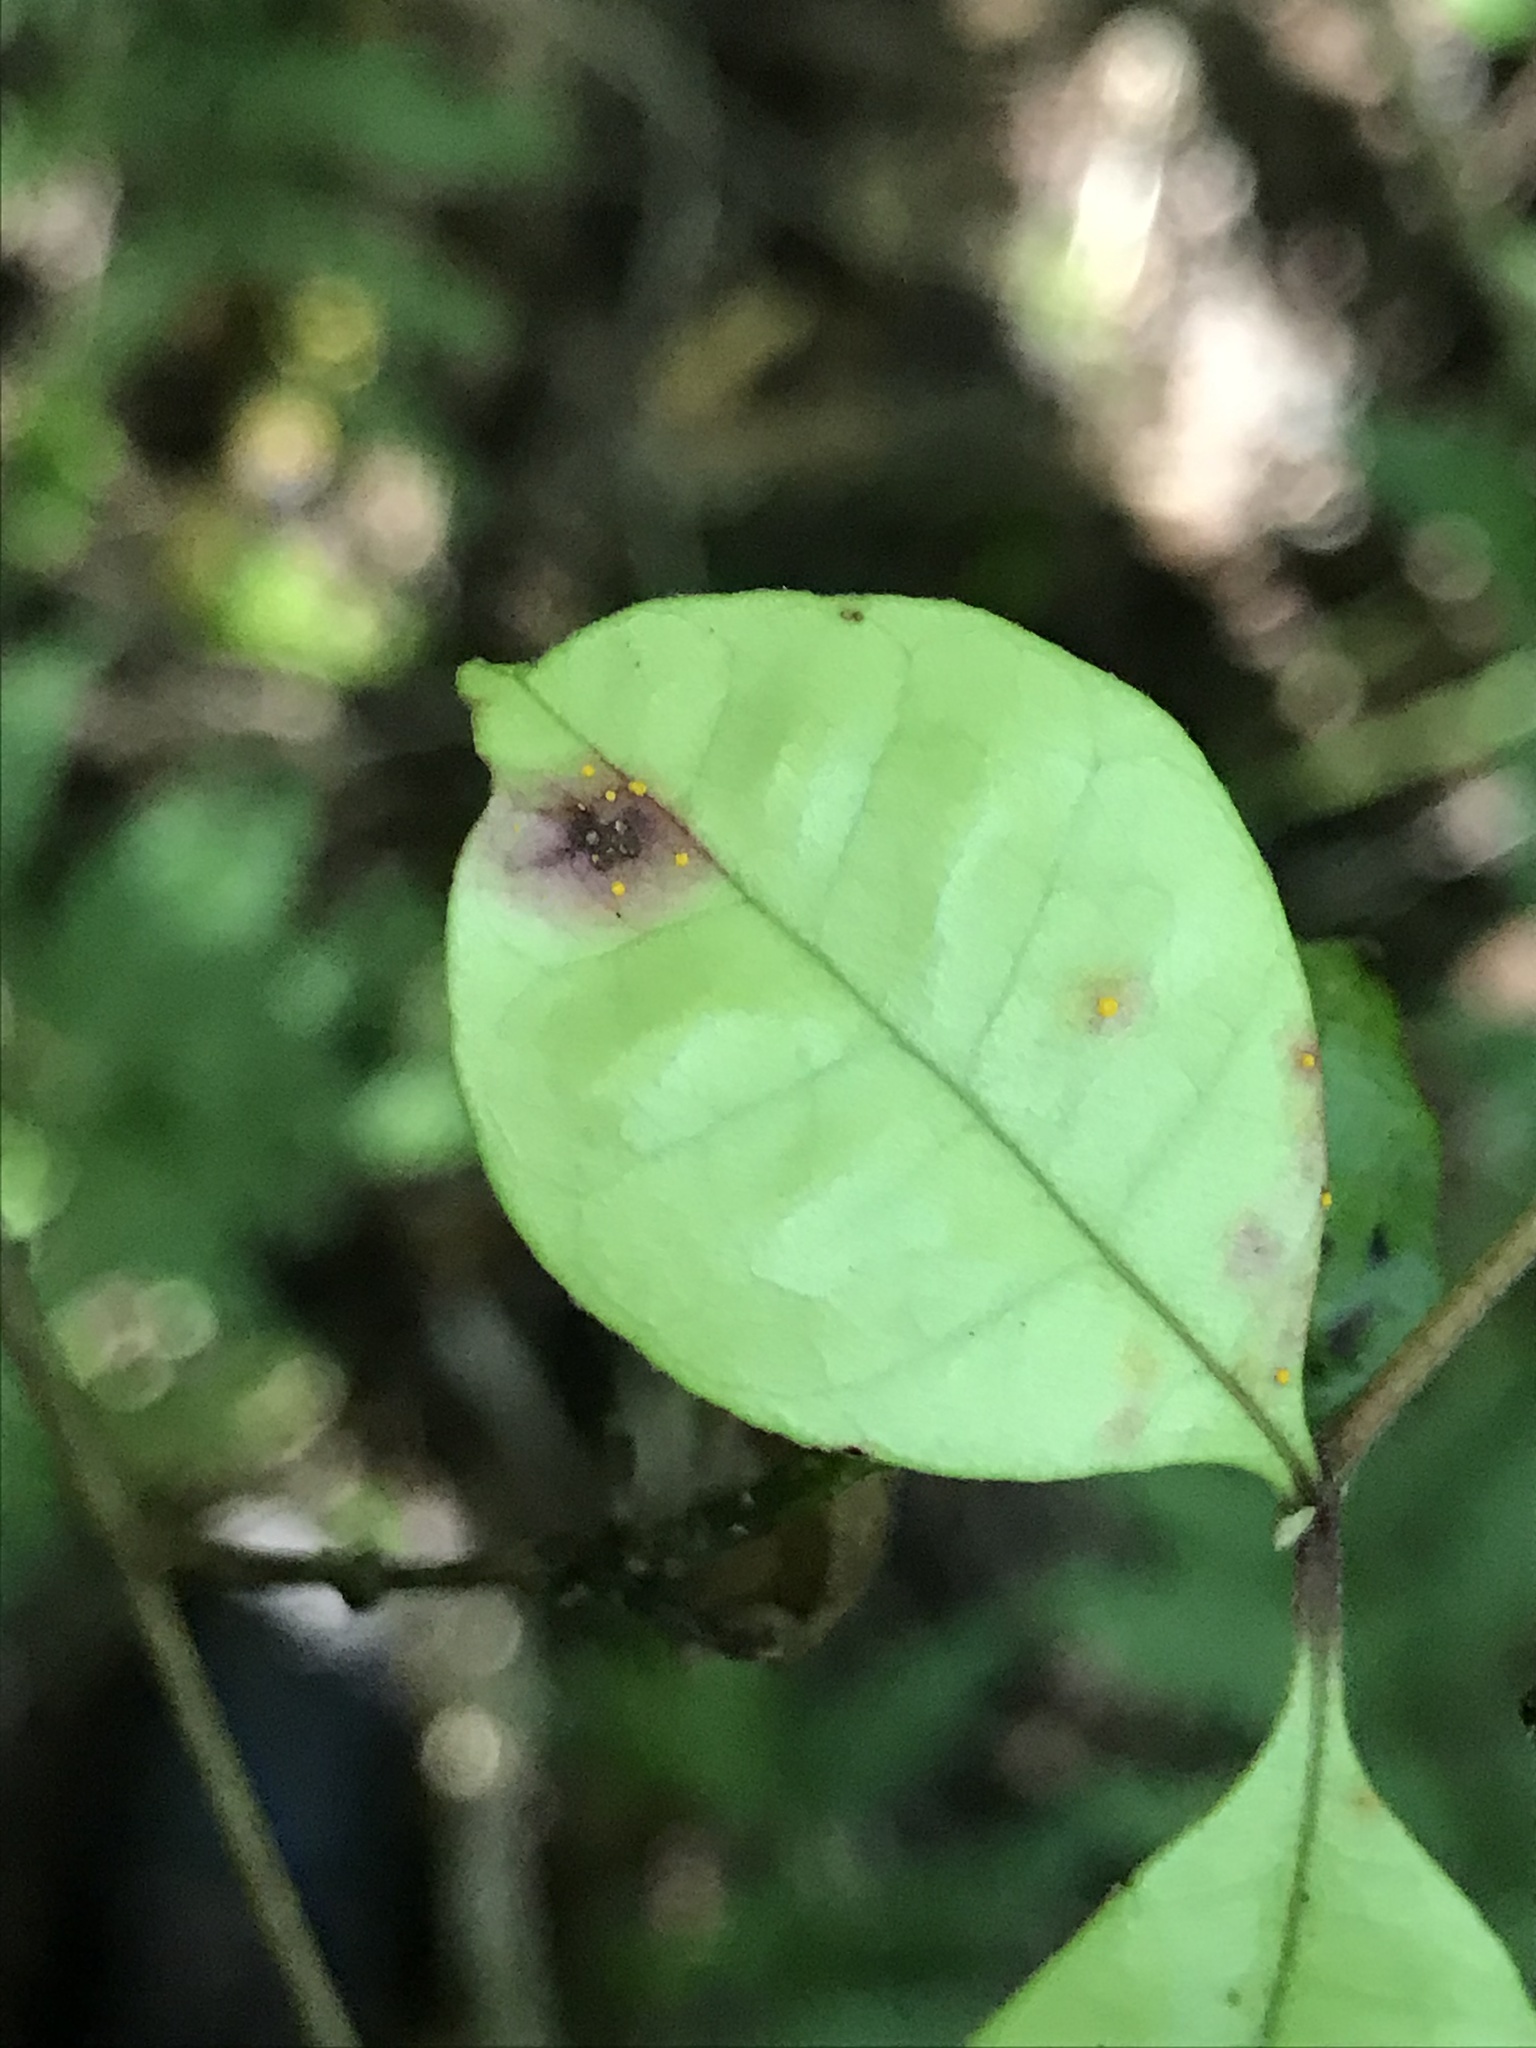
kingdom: Fungi
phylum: Basidiomycota
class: Pucciniomycetes
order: Pucciniales
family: Sphaerophragmiaceae
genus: Austropuccinia
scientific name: Austropuccinia psidii
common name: Myrtle rust
